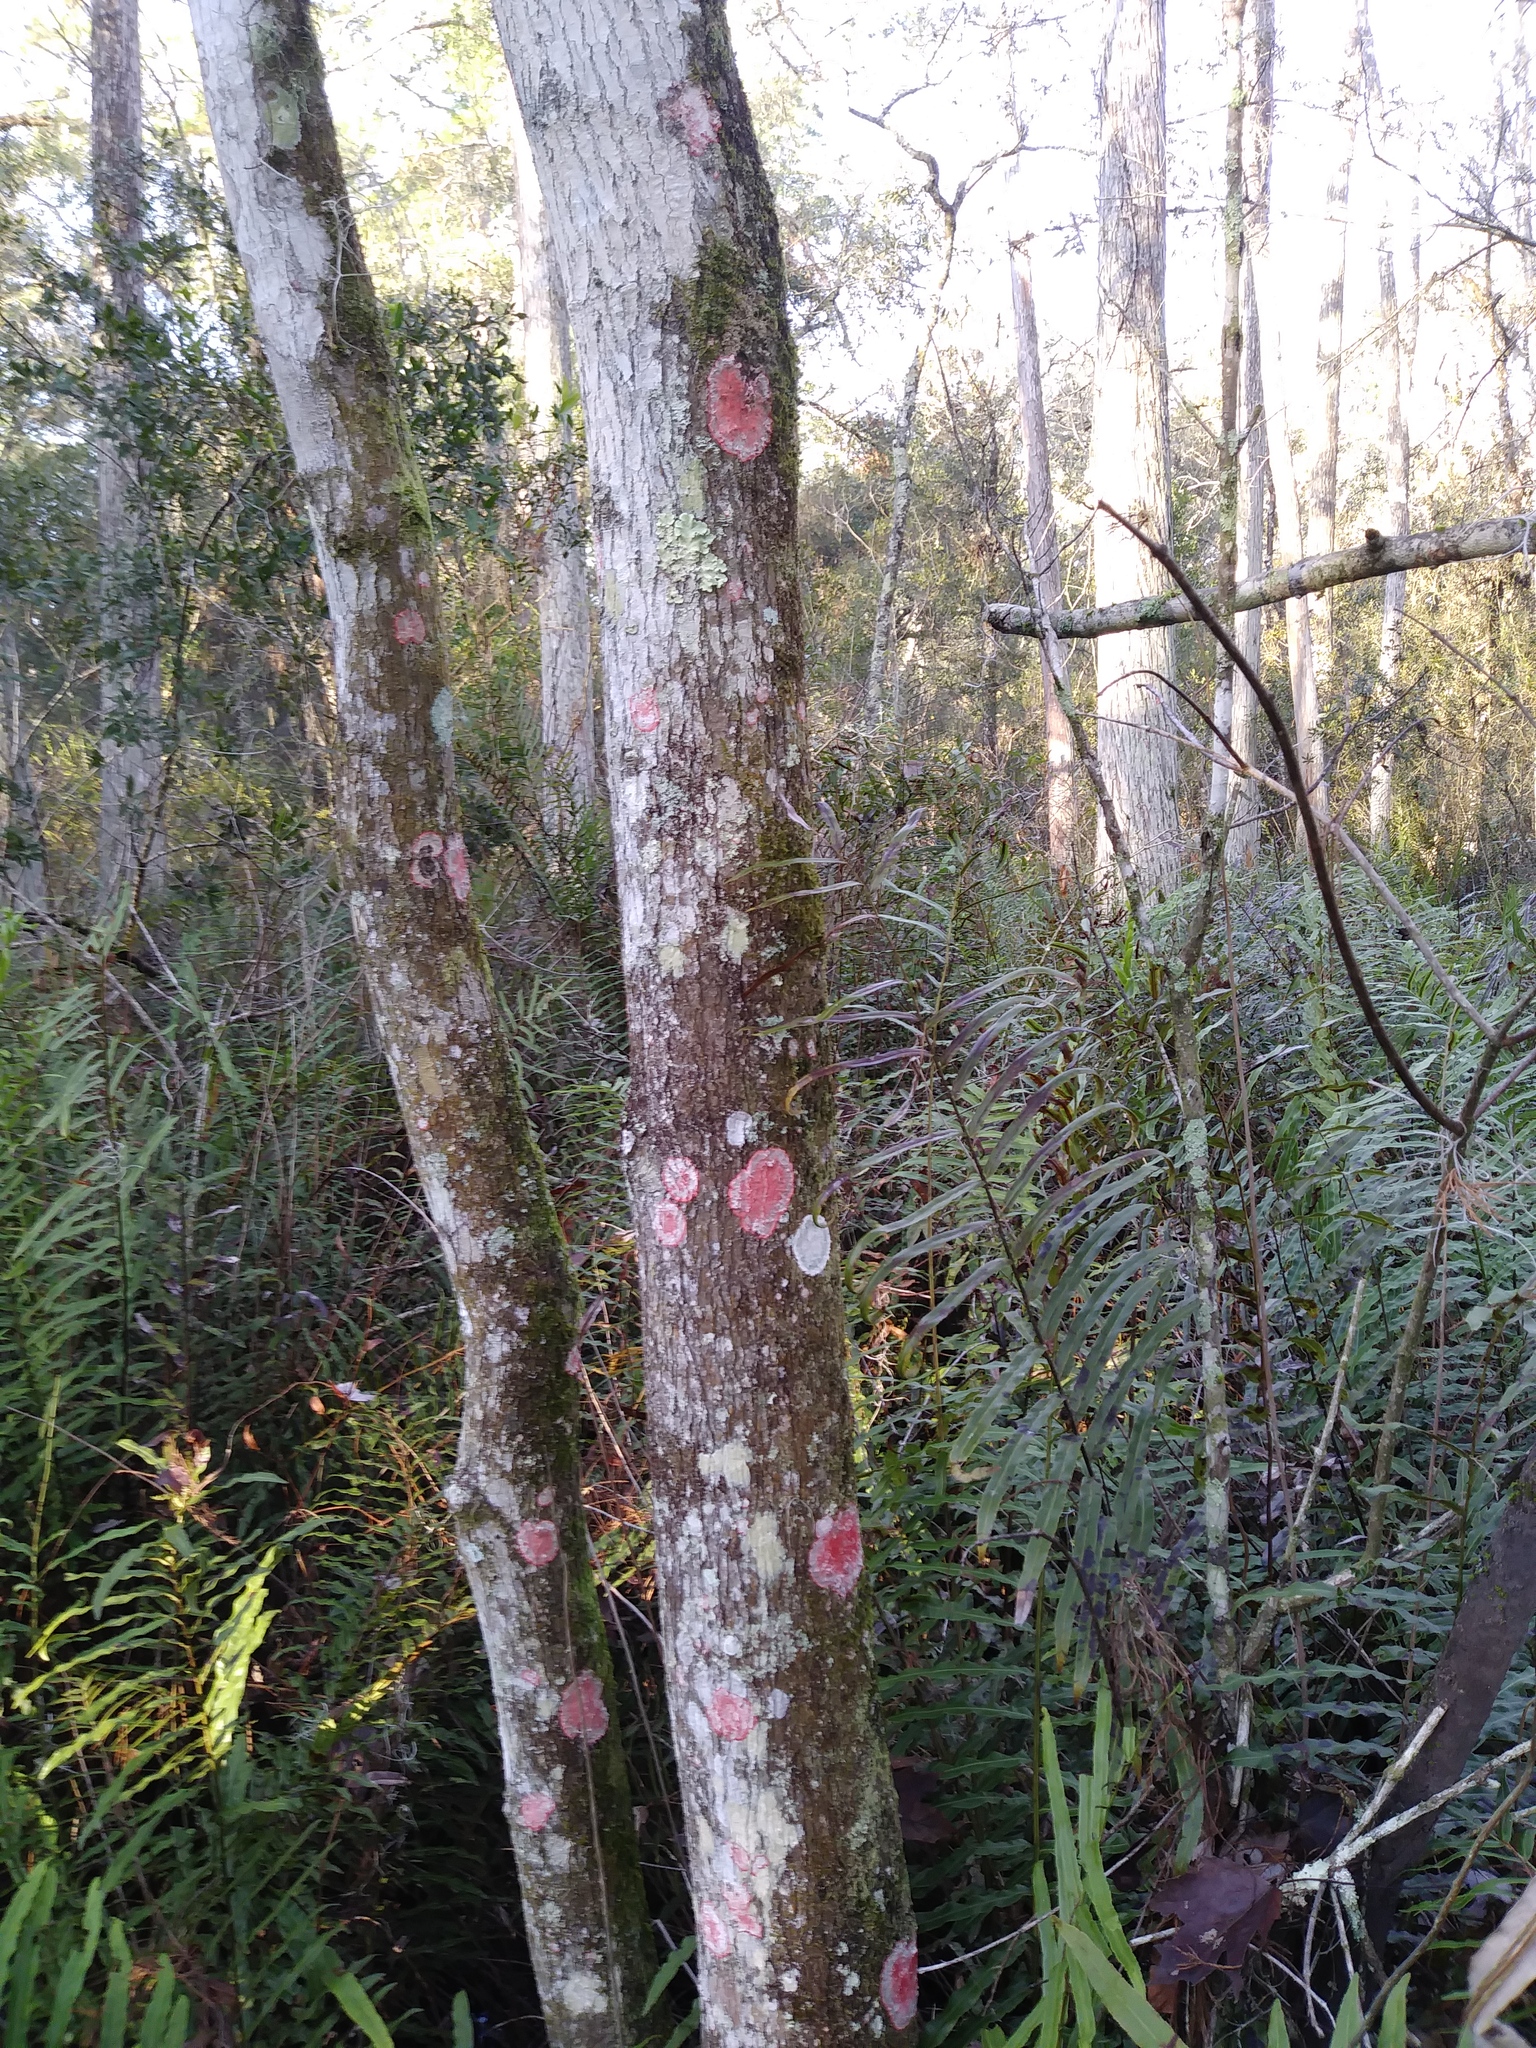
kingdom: Fungi
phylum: Ascomycota
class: Arthoniomycetes
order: Arthoniales
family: Arthoniaceae
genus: Herpothallon
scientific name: Herpothallon rubrocinctum
